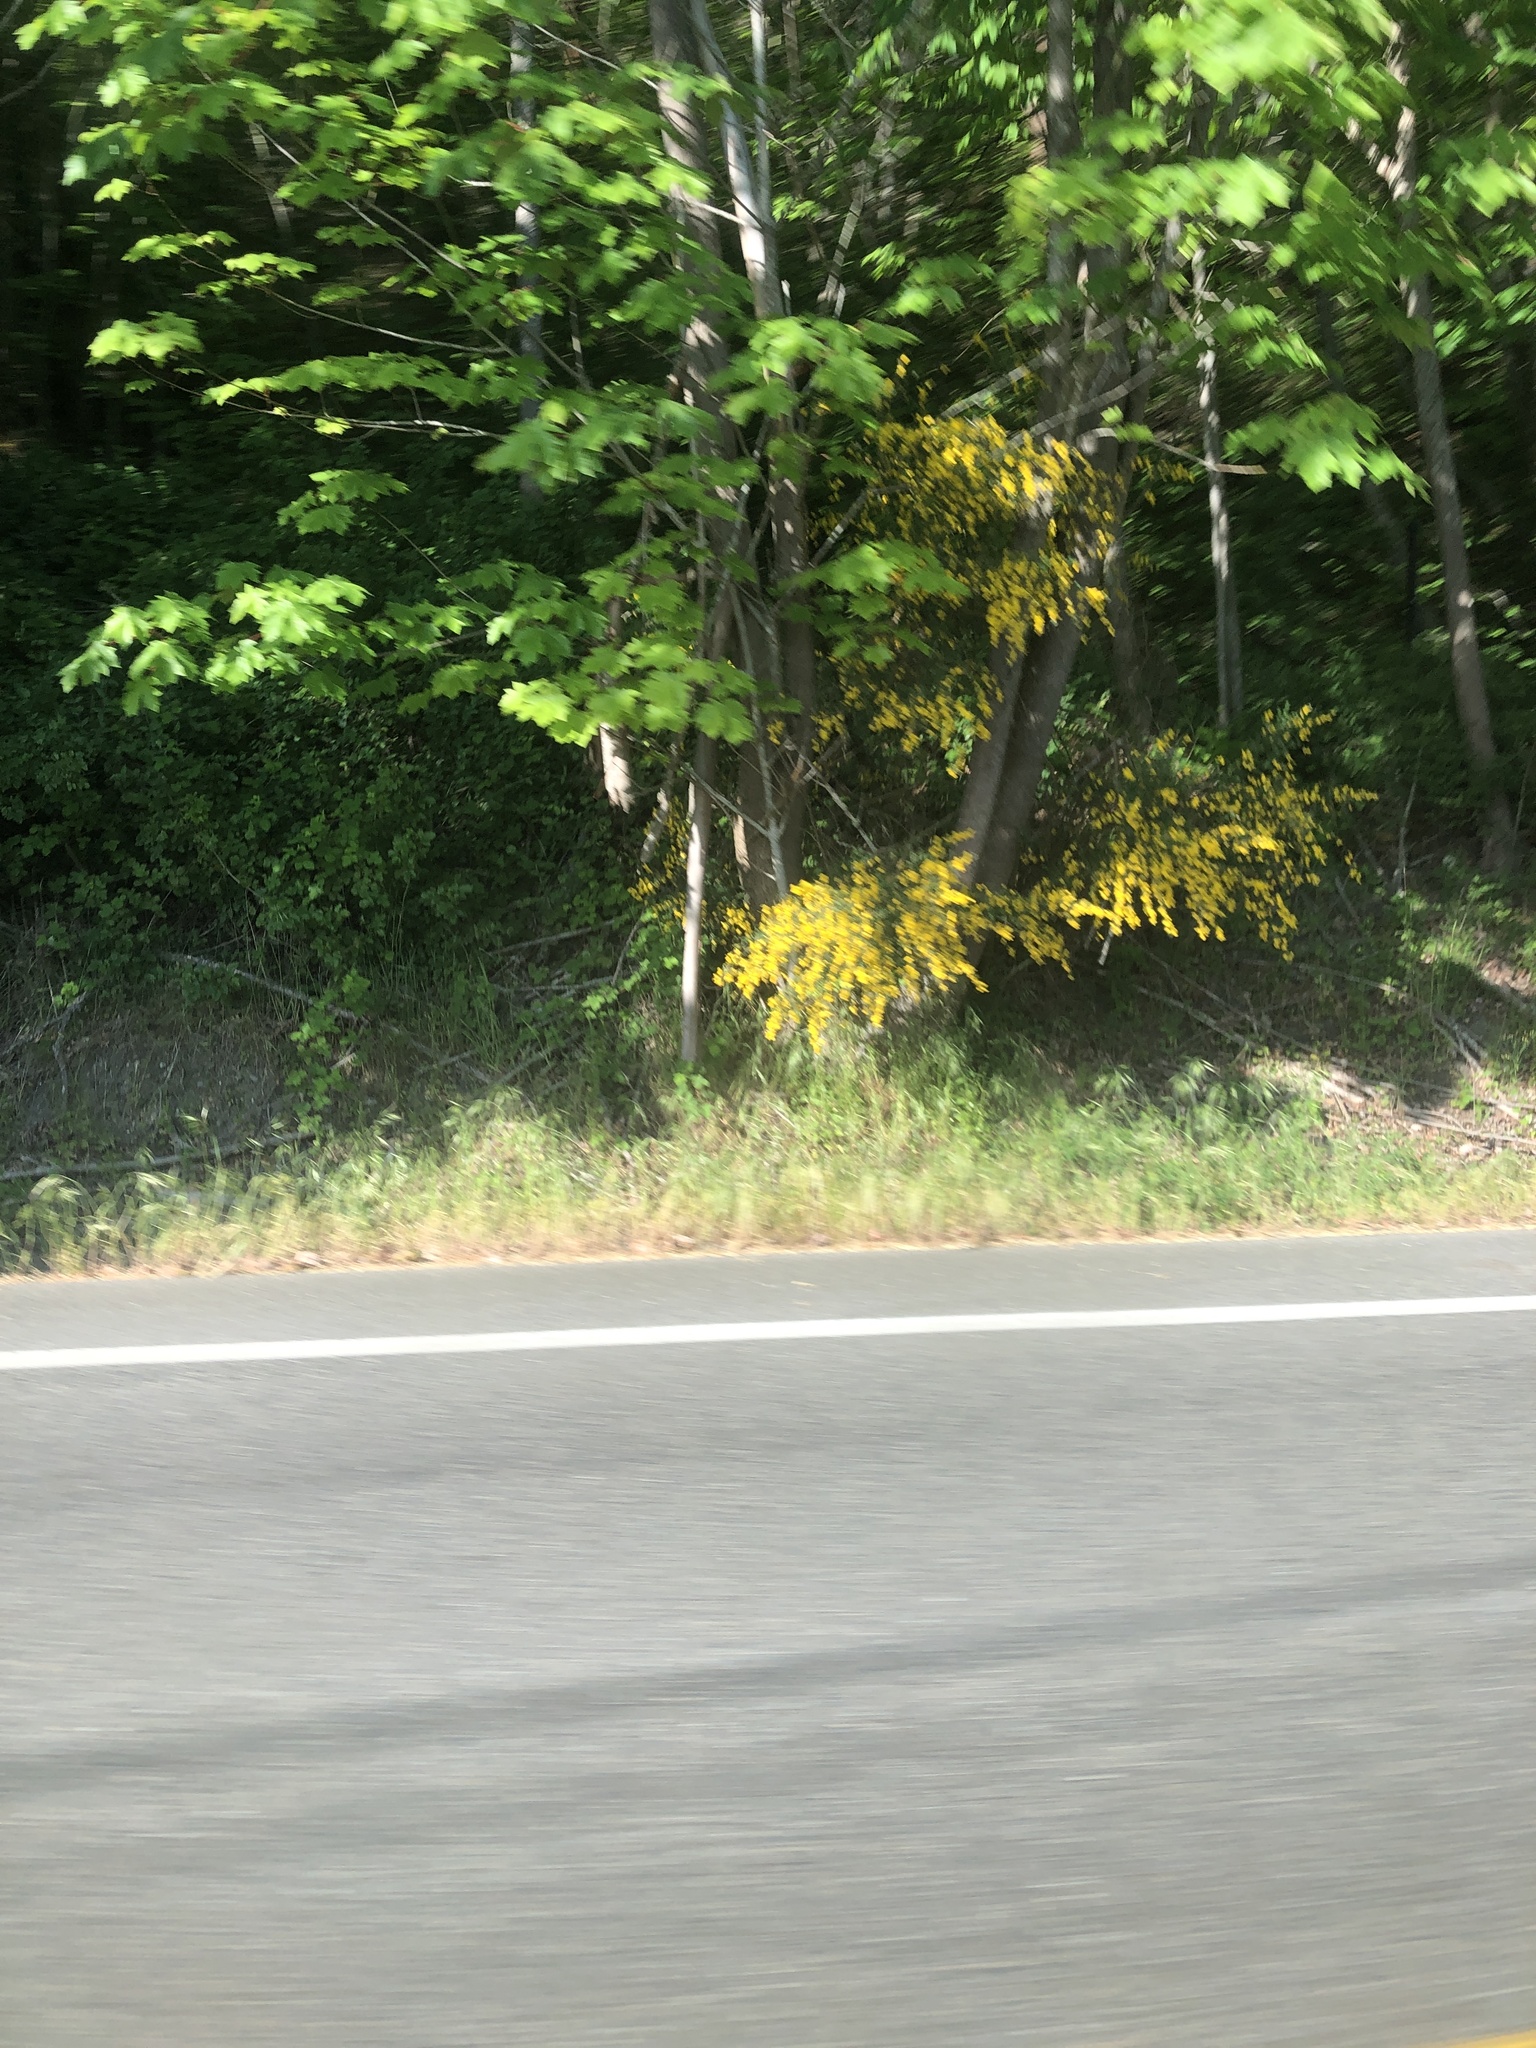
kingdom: Plantae
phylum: Tracheophyta
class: Magnoliopsida
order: Fabales
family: Fabaceae
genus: Cytisus
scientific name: Cytisus scoparius
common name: Scotch broom
